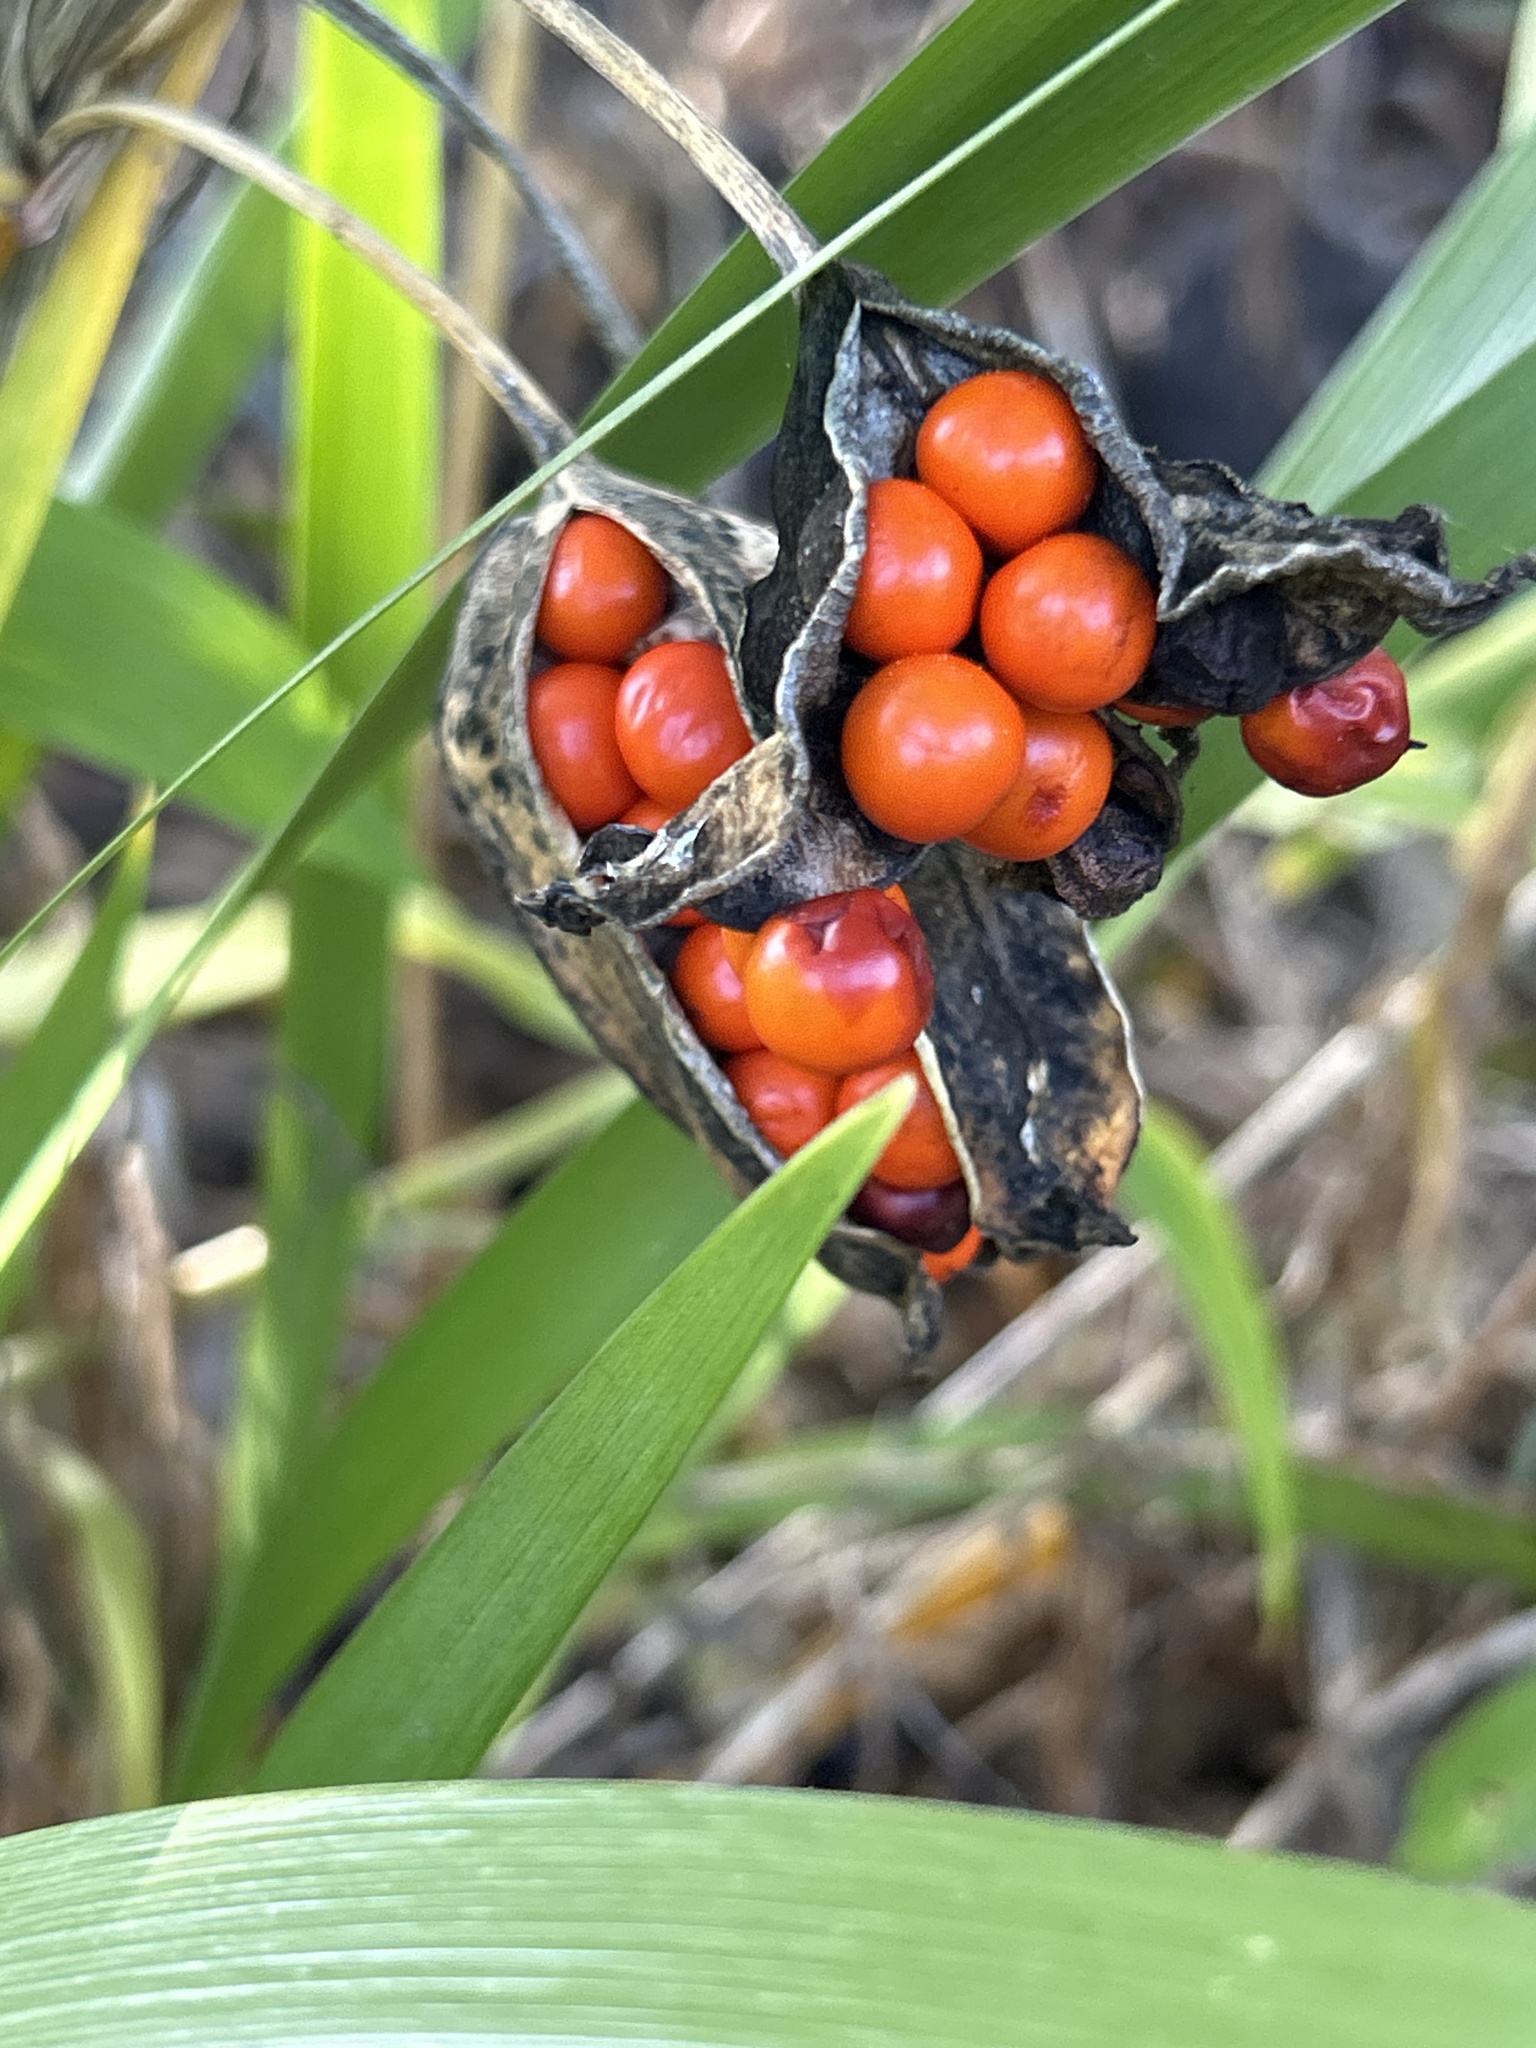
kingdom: Plantae
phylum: Tracheophyta
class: Liliopsida
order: Asparagales
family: Iridaceae
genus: Iris
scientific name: Iris foetidissima
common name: Stinking iris
